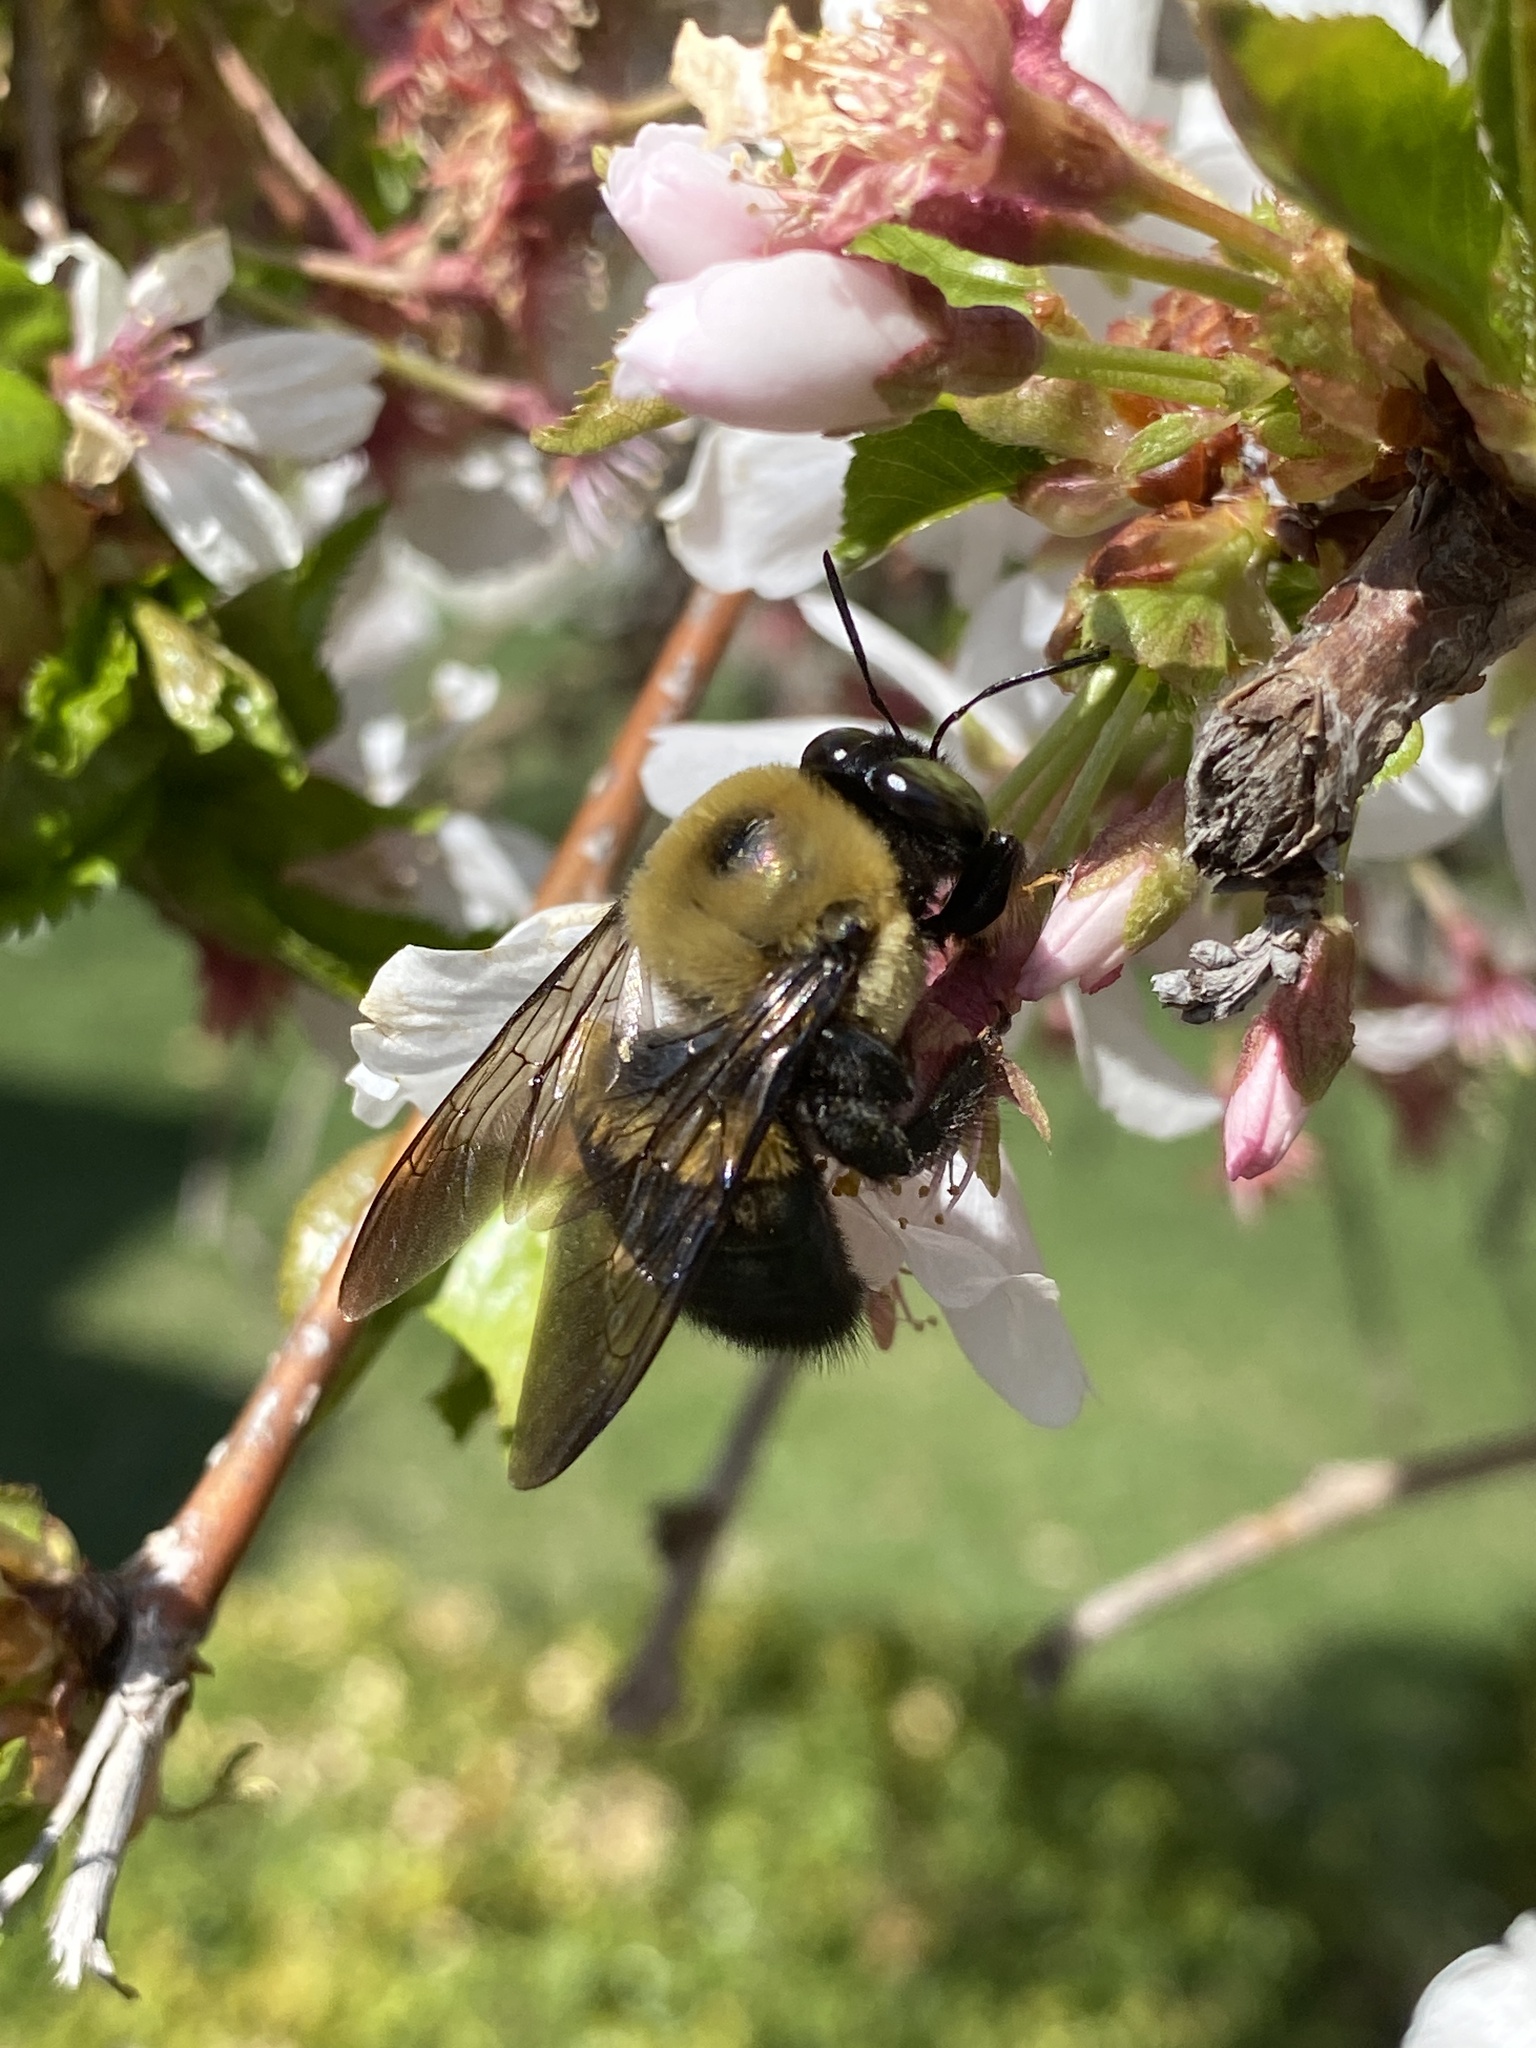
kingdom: Animalia
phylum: Arthropoda
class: Insecta
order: Hymenoptera
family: Apidae
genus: Xylocopa
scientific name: Xylocopa virginica
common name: Carpenter bee
